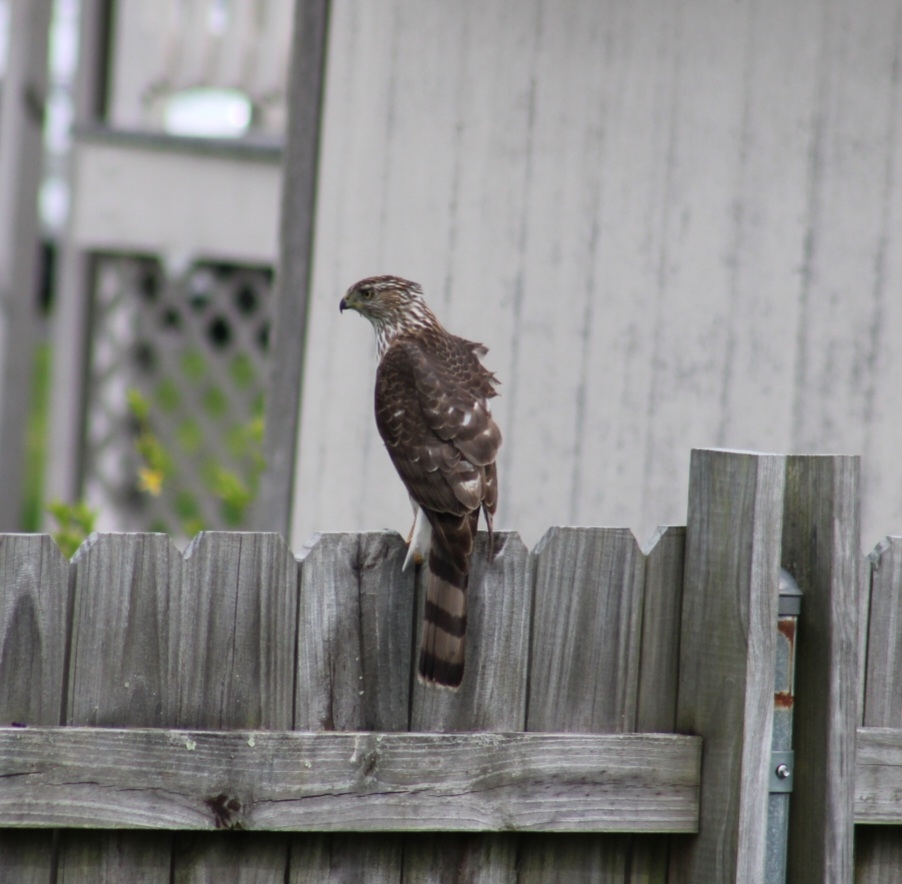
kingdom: Animalia
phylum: Chordata
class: Aves
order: Accipitriformes
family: Accipitridae
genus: Accipiter
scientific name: Accipiter cooperii
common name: Cooper's hawk
